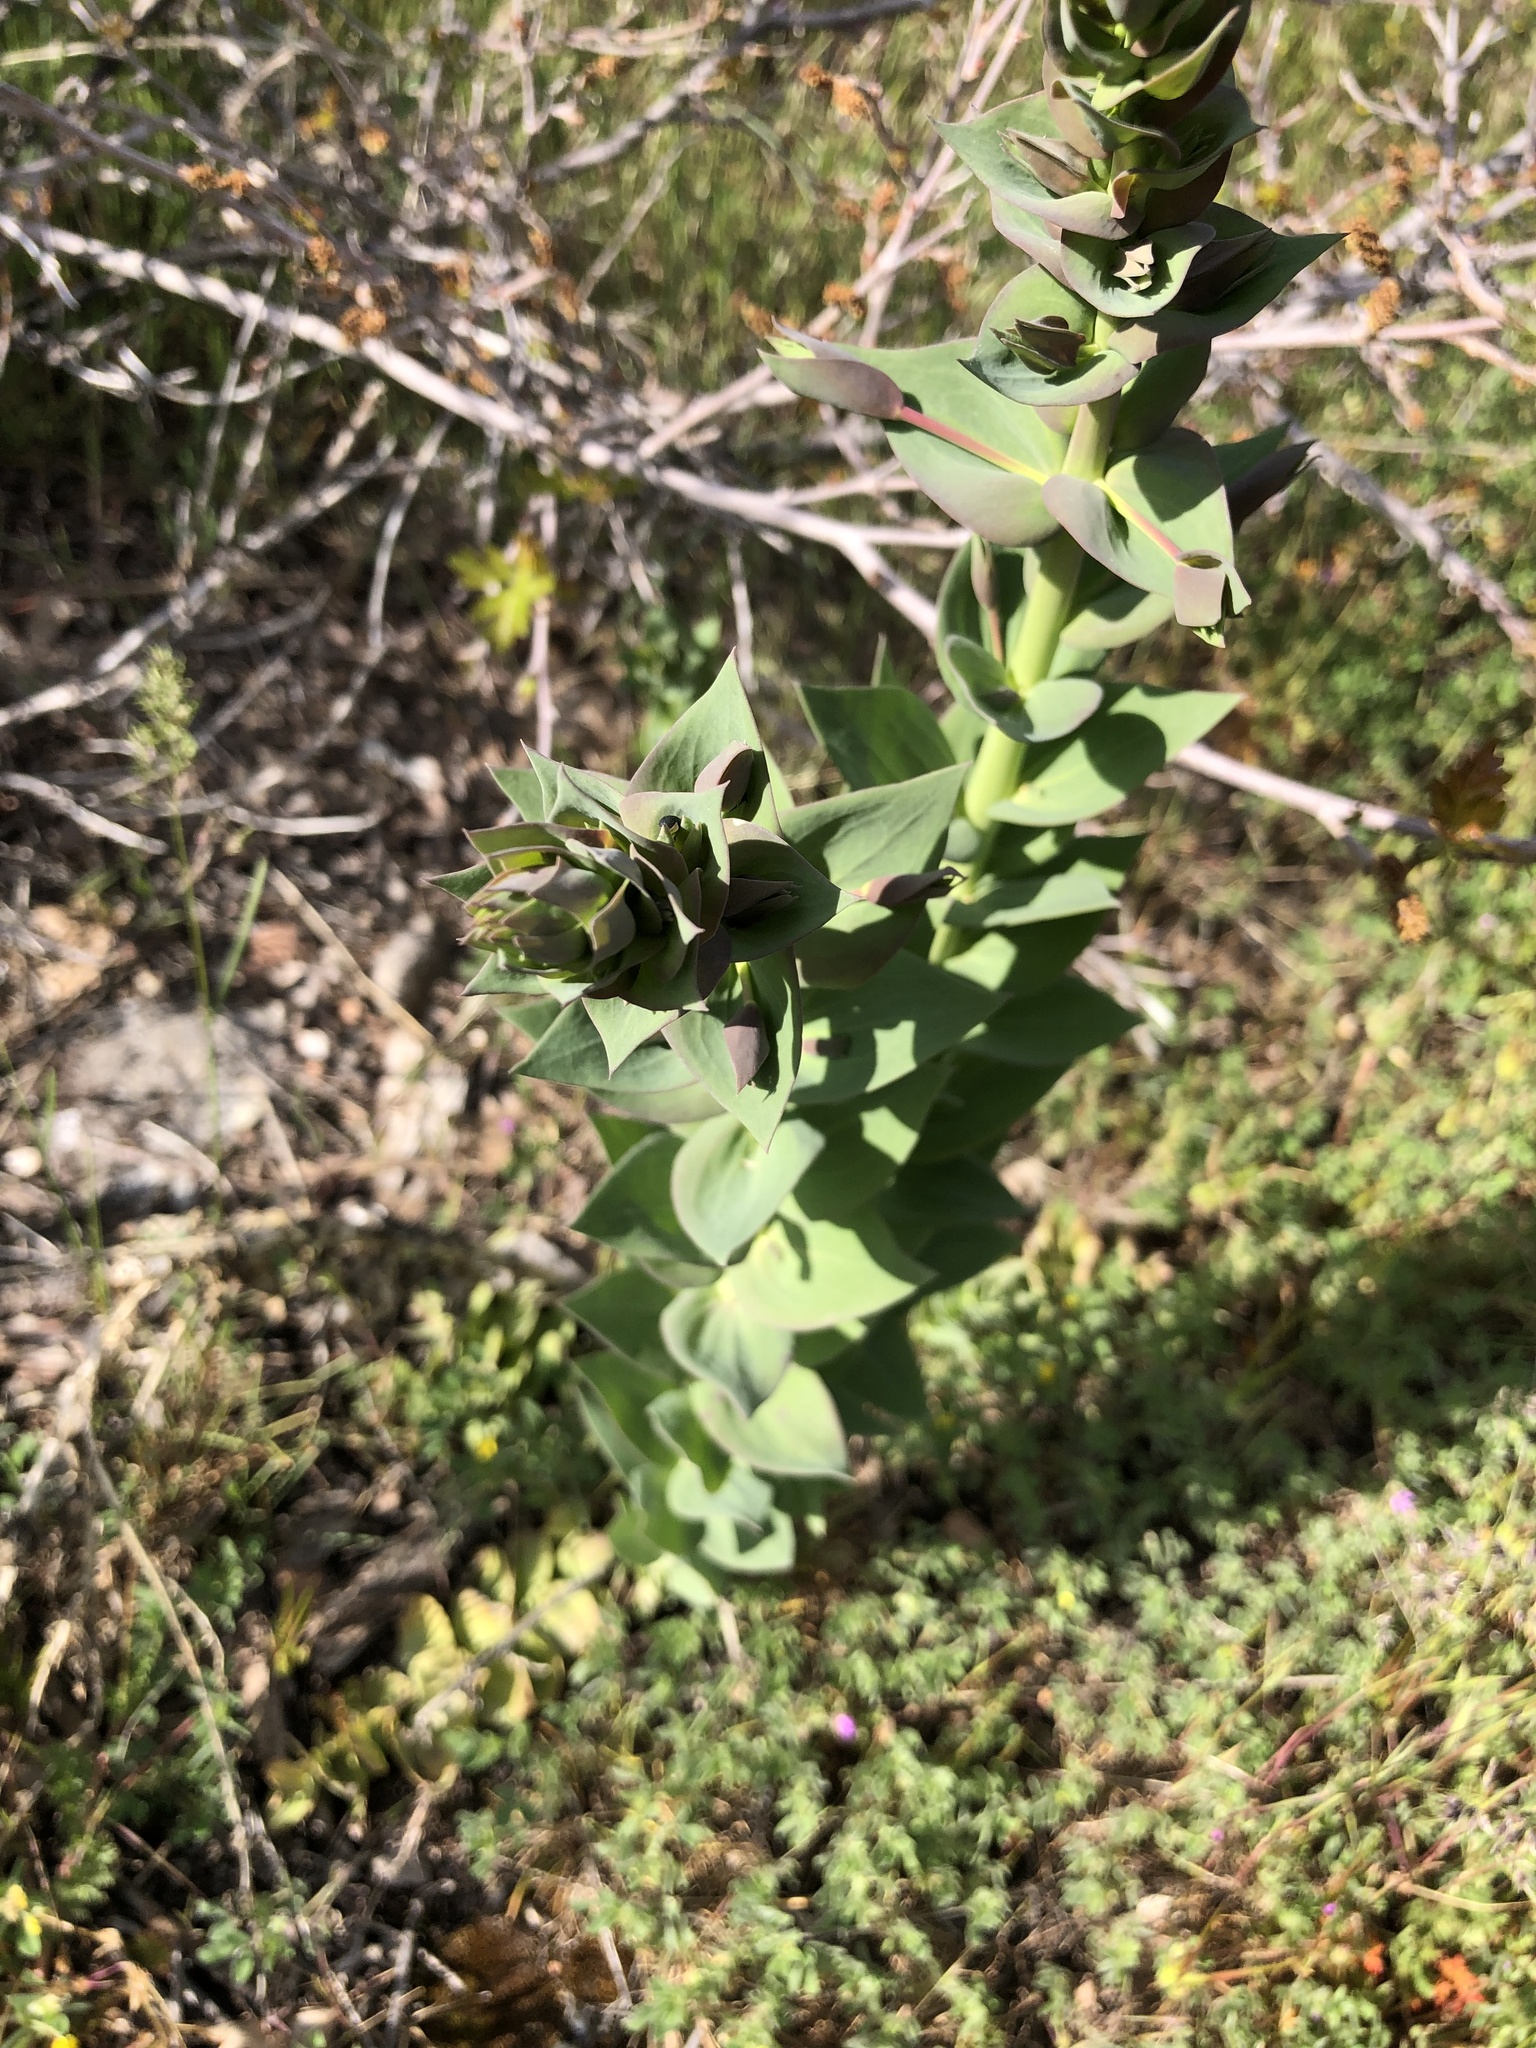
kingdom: Plantae
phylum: Tracheophyta
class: Magnoliopsida
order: Lamiales
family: Plantaginaceae
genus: Linaria
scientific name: Linaria dalmatica
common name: Dalmatian toadflax
